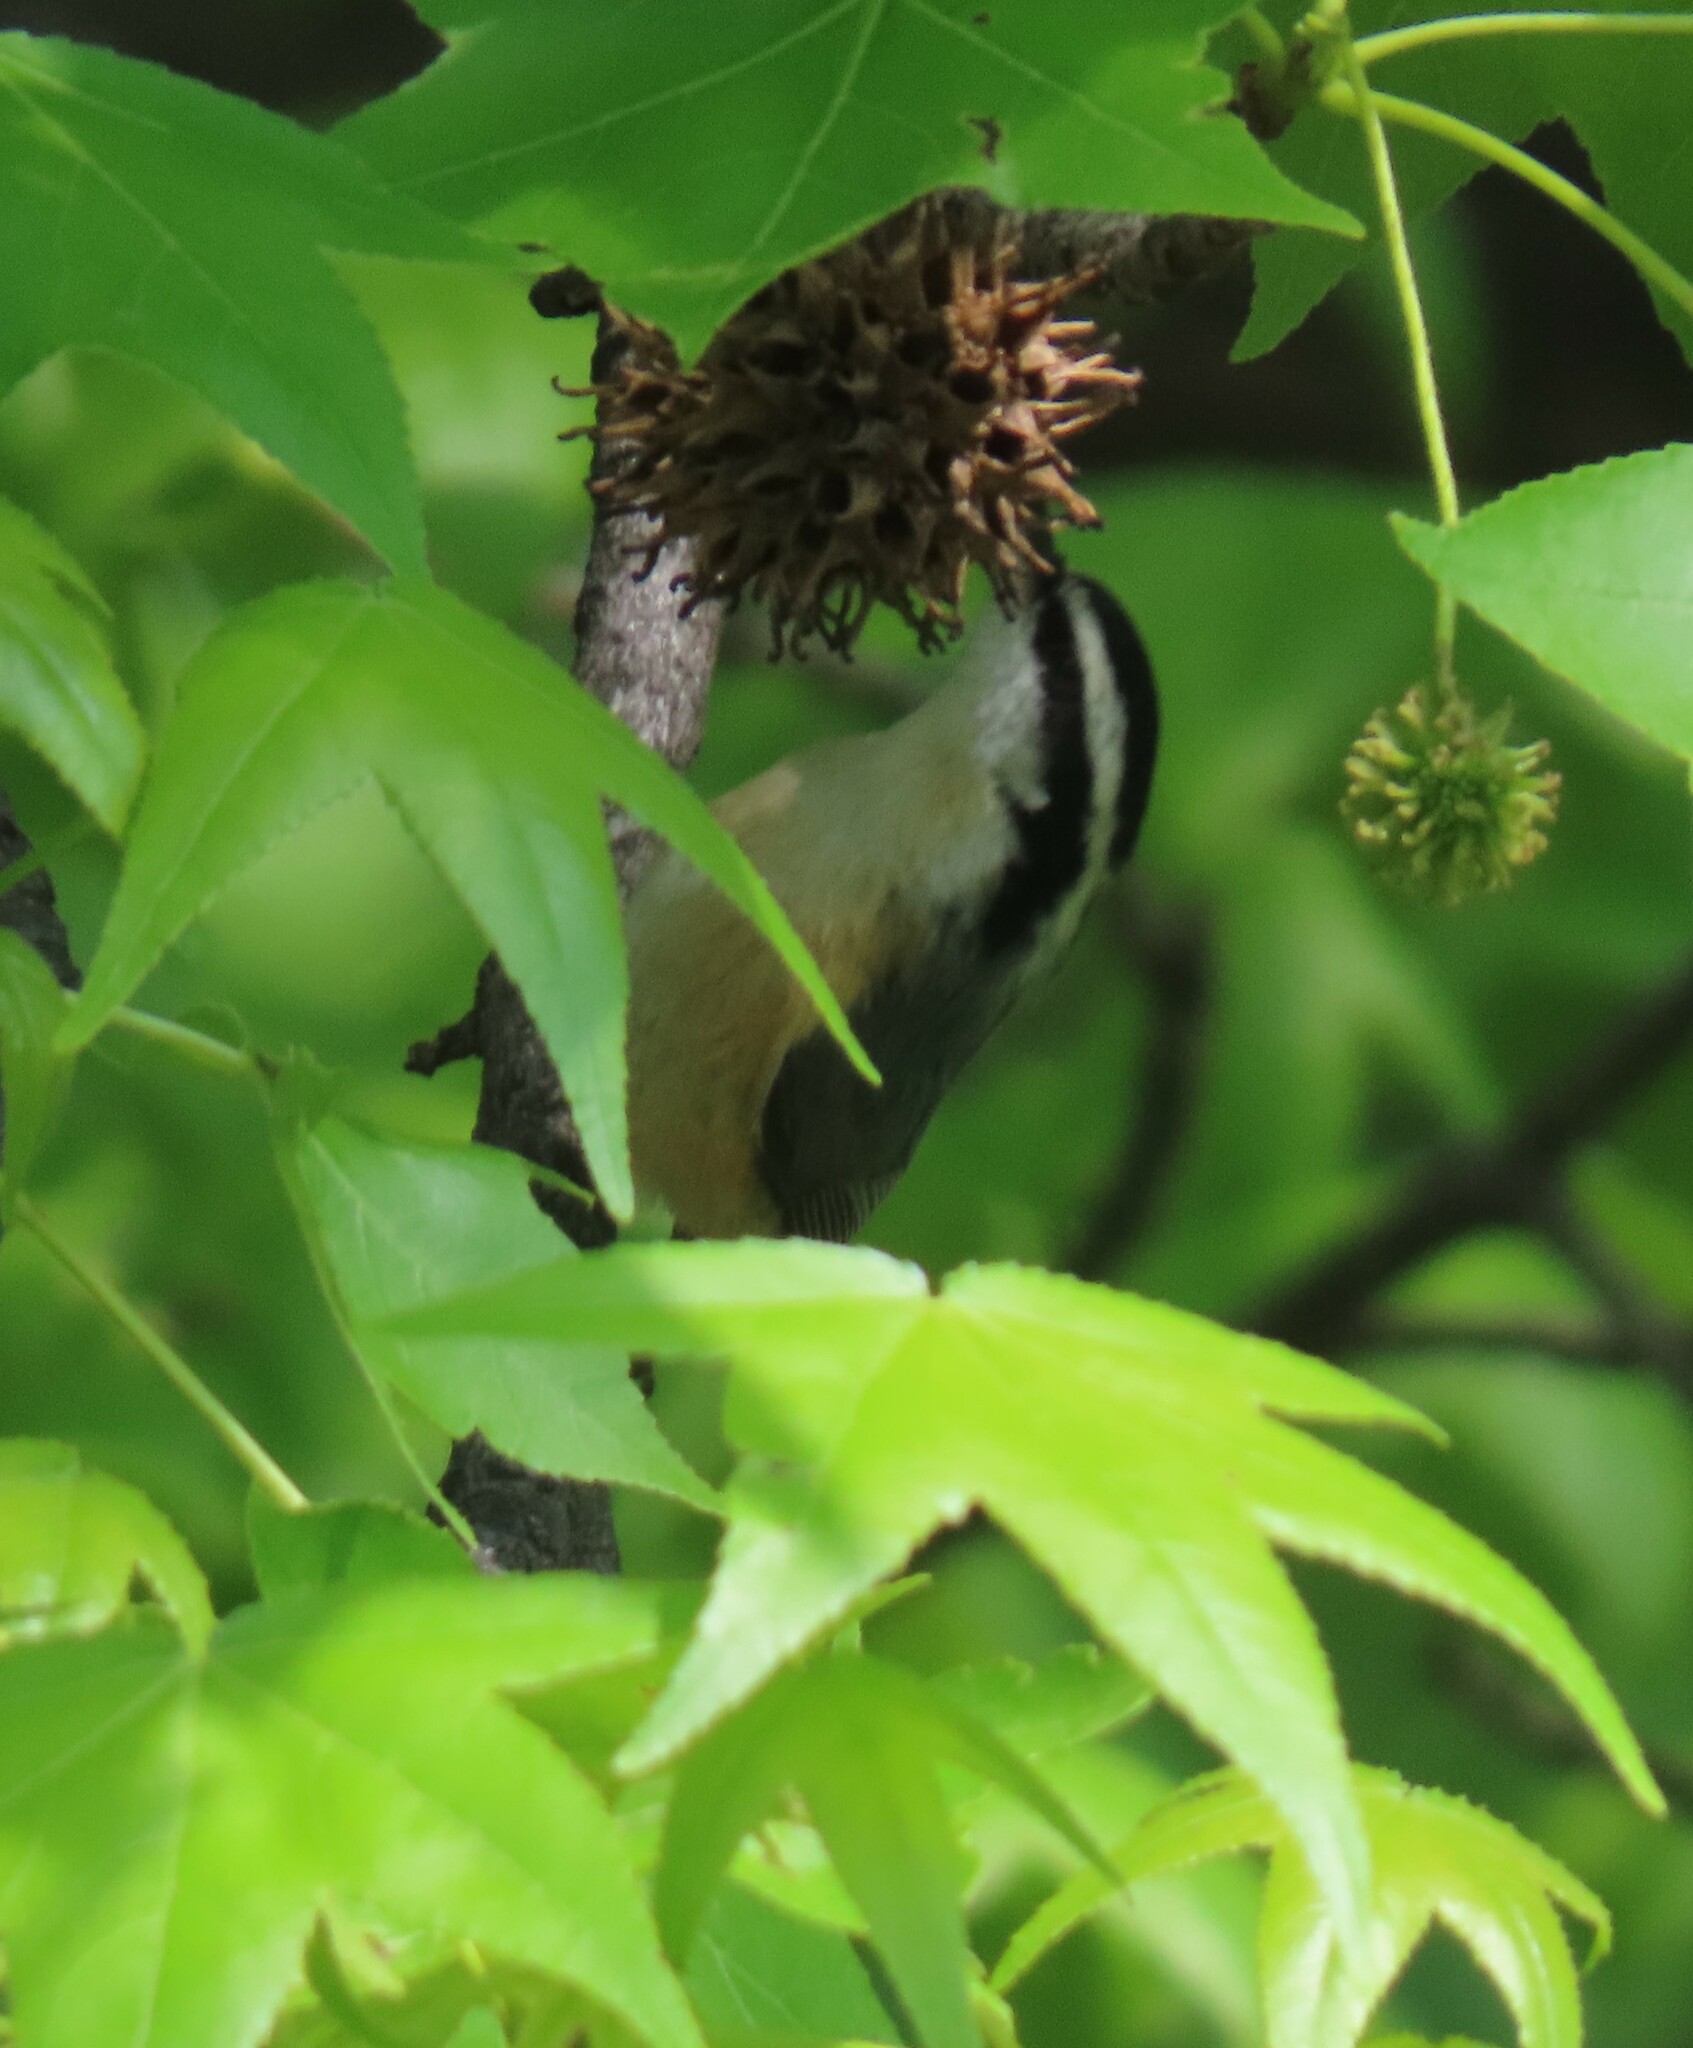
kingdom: Animalia
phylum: Chordata
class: Aves
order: Passeriformes
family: Sittidae
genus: Sitta
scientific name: Sitta canadensis
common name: Red-breasted nuthatch
